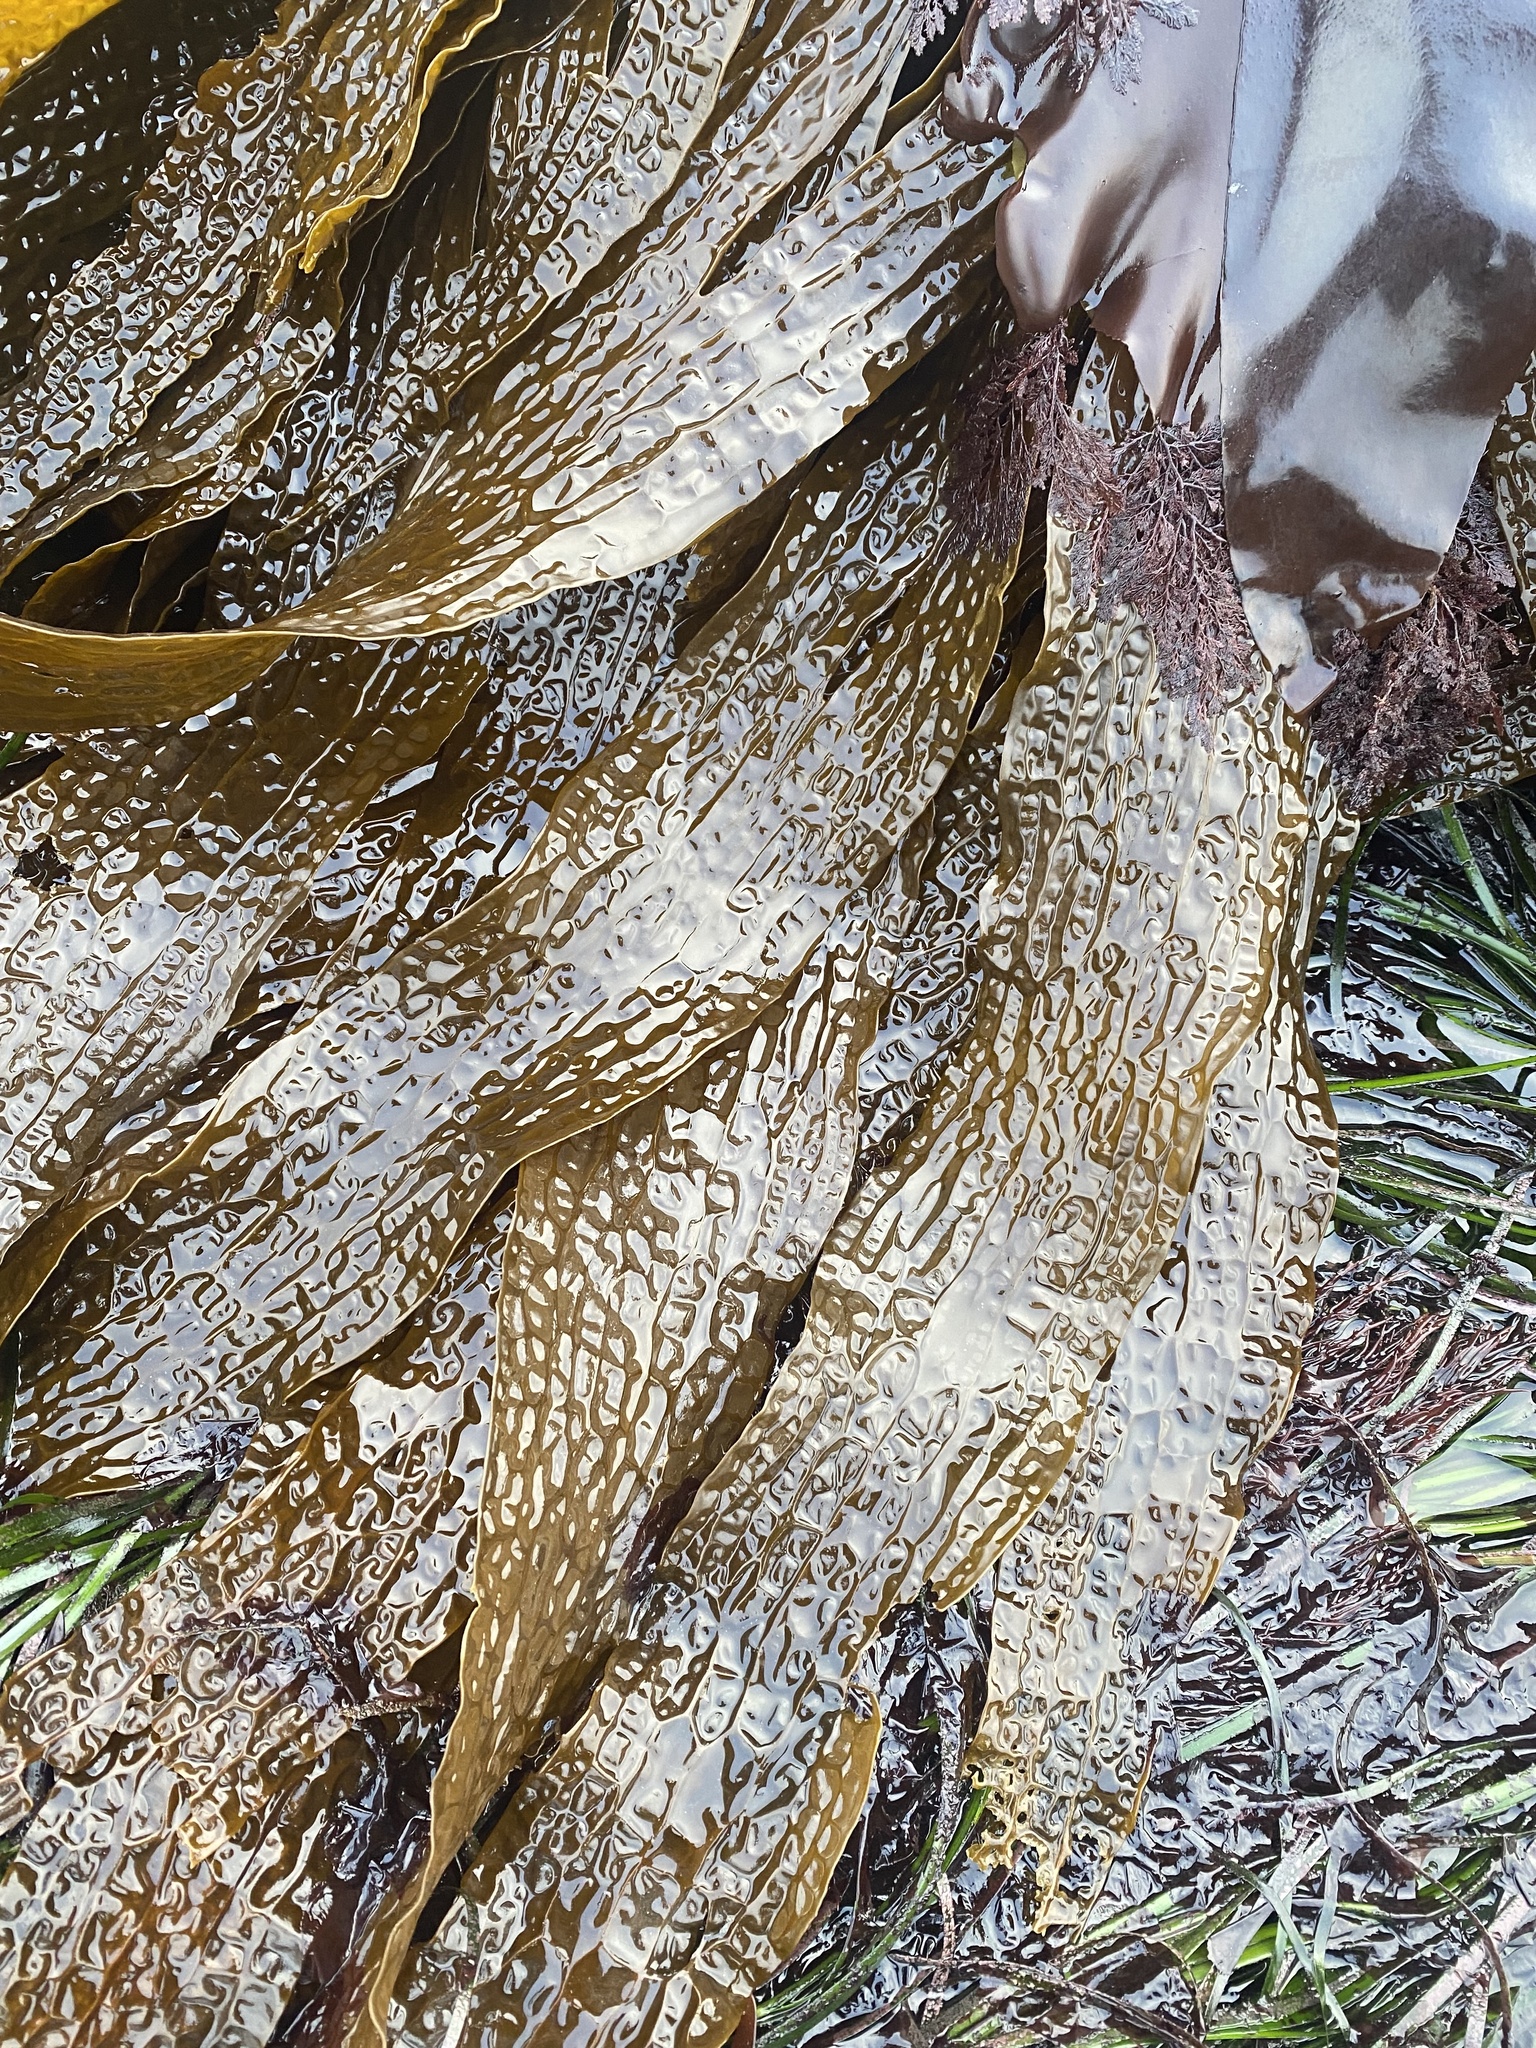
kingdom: Chromista
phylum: Ochrophyta
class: Phaeophyceae
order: Laminariales
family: Costariaceae
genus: Dictyoneurum
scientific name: Dictyoneurum californicum
